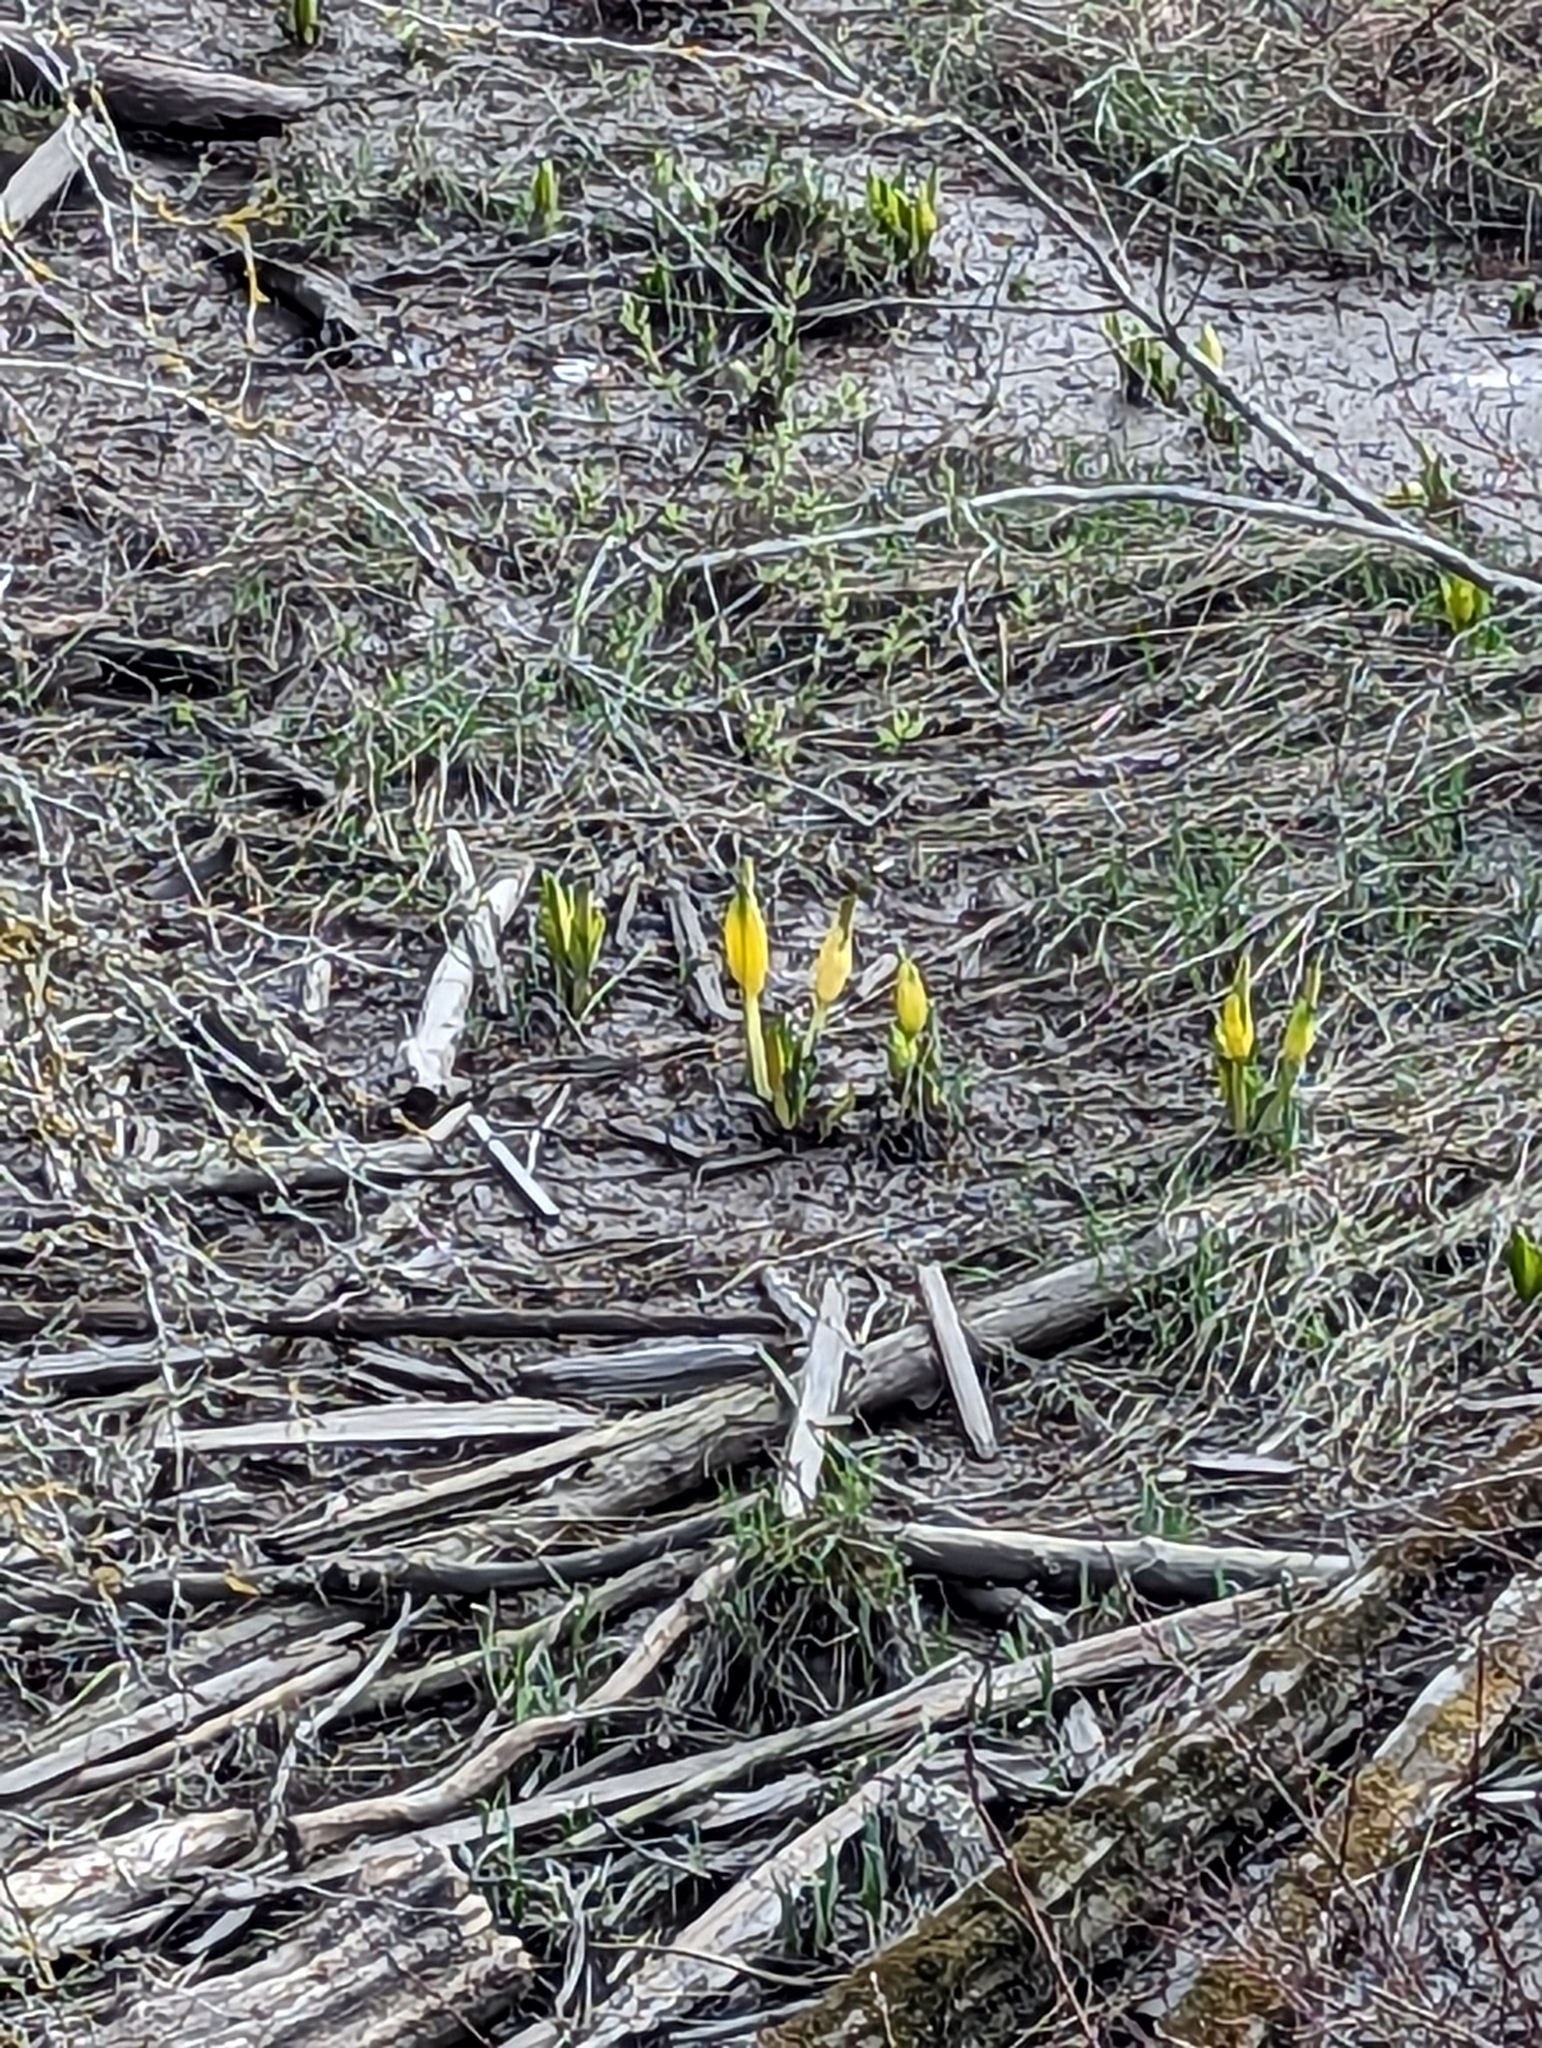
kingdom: Plantae
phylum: Tracheophyta
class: Liliopsida
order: Alismatales
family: Araceae
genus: Lysichiton
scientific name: Lysichiton americanus
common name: American skunk cabbage
